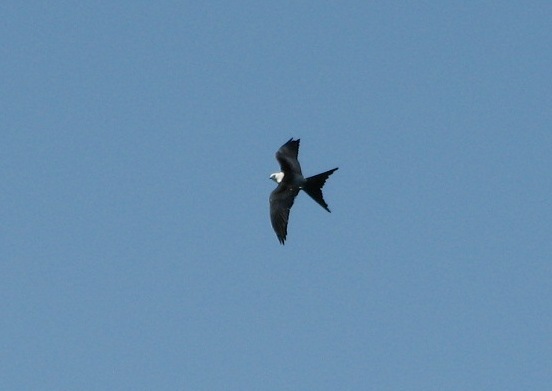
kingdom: Animalia
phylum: Chordata
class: Aves
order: Accipitriformes
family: Accipitridae
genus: Elanoides
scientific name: Elanoides forficatus
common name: Swallow-tailed kite
